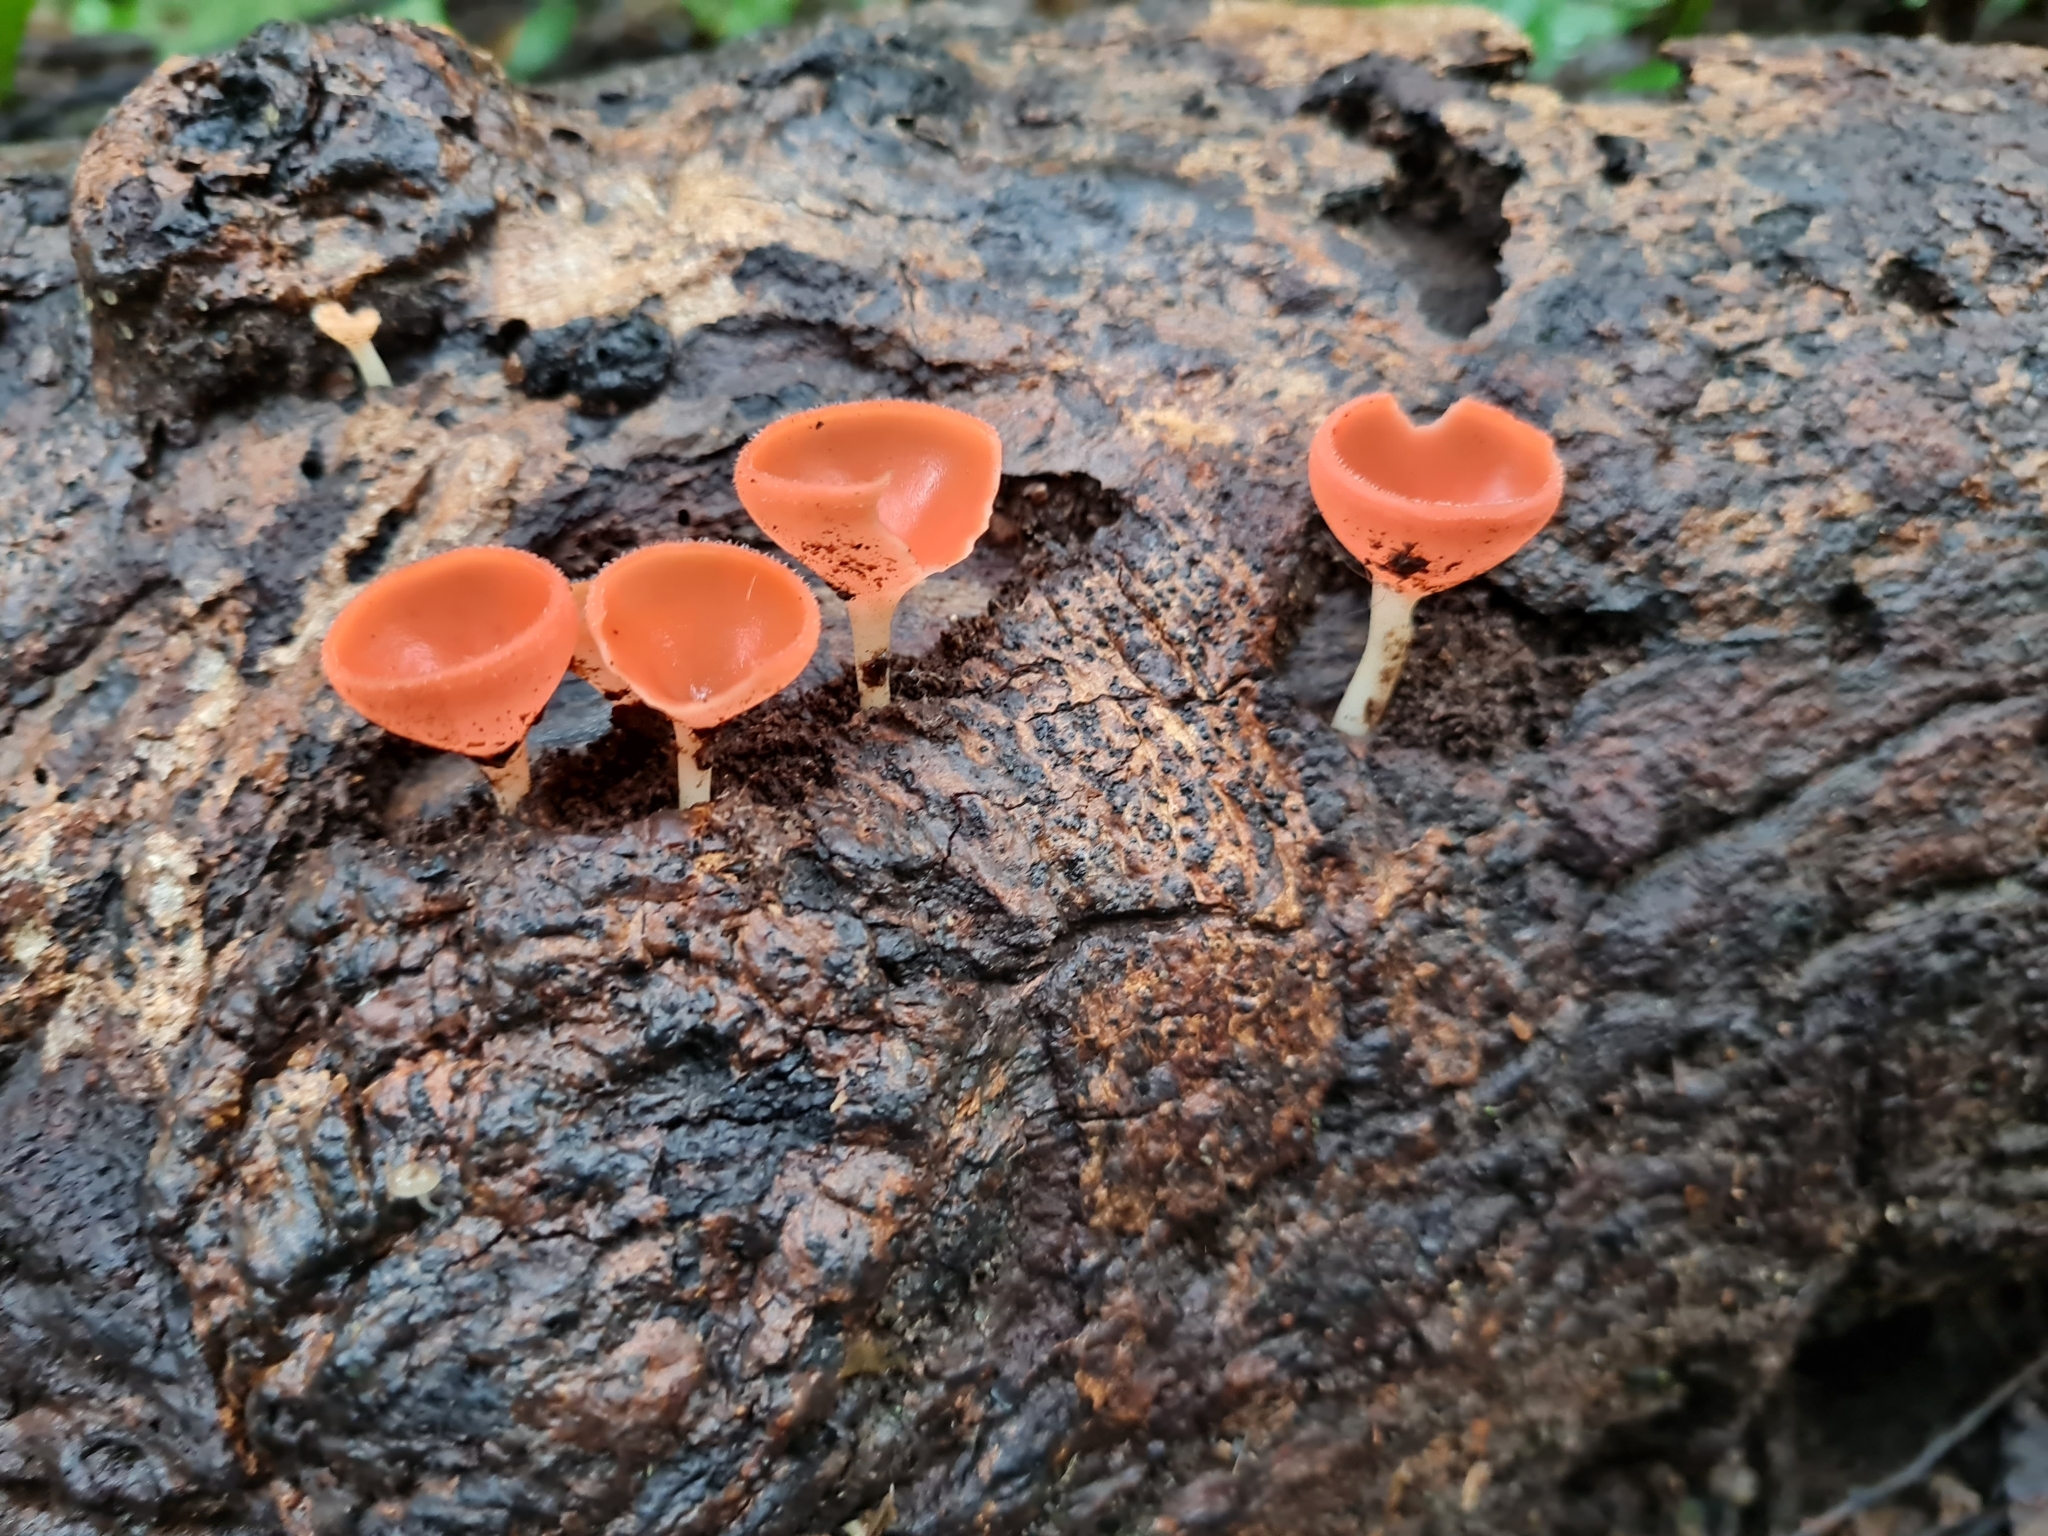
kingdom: Fungi
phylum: Ascomycota
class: Pezizomycetes
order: Pezizales
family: Sarcoscyphaceae
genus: Cookeina
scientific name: Cookeina speciosa
